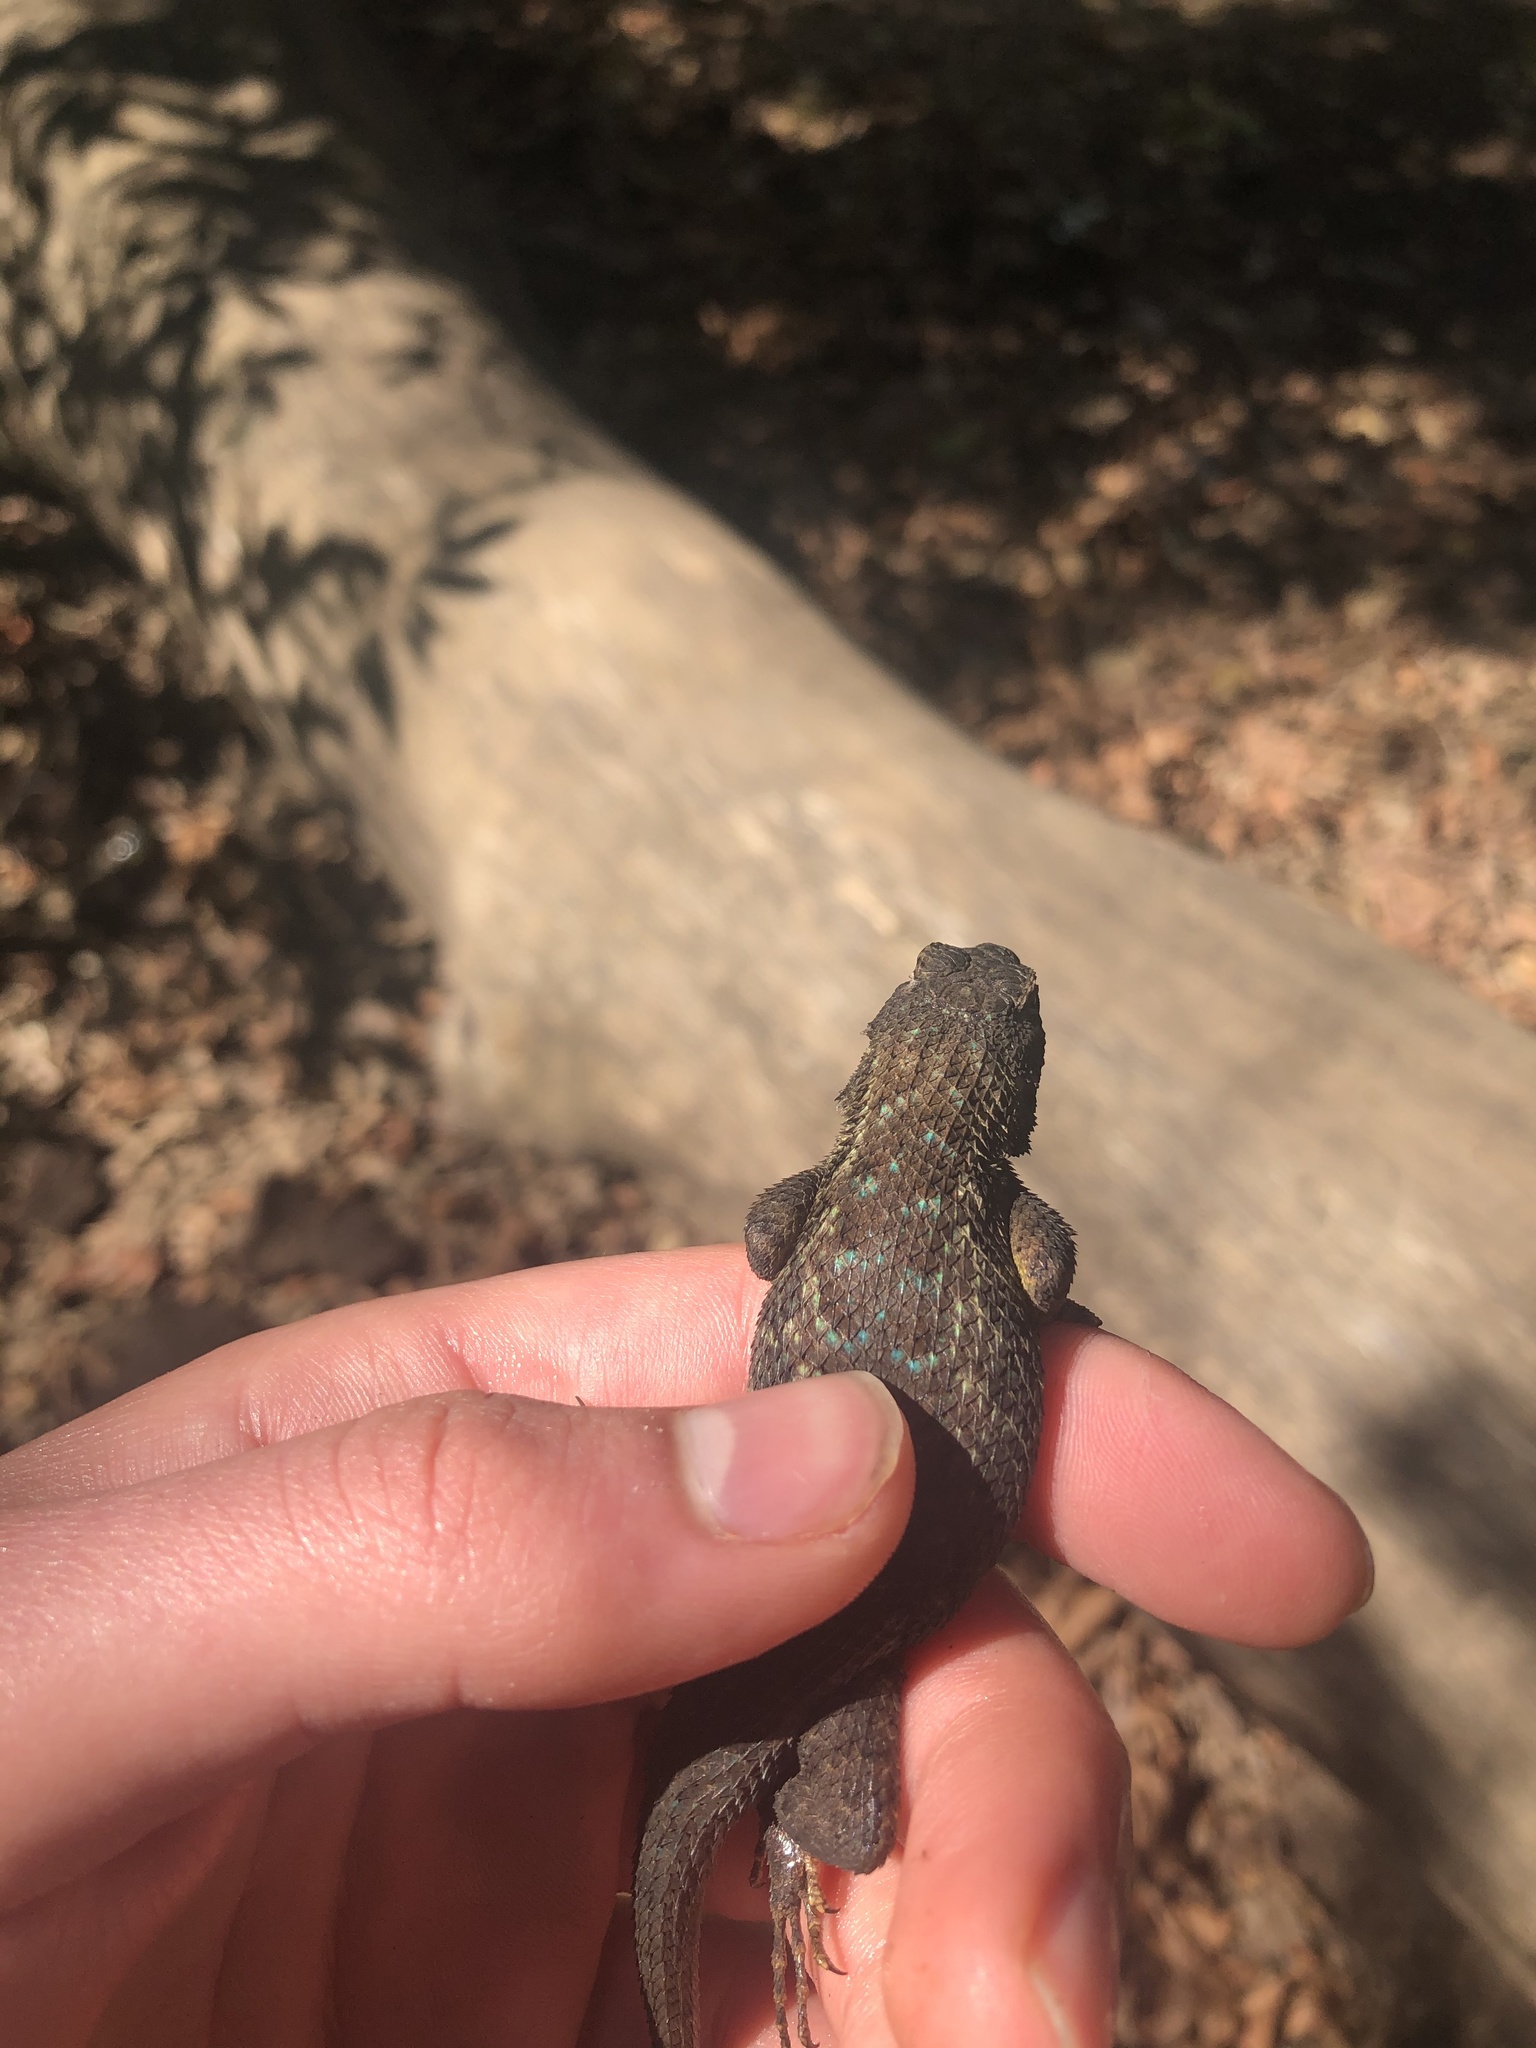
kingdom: Animalia
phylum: Chordata
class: Squamata
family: Phrynosomatidae
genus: Sceloporus
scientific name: Sceloporus occidentalis
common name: Western fence lizard
